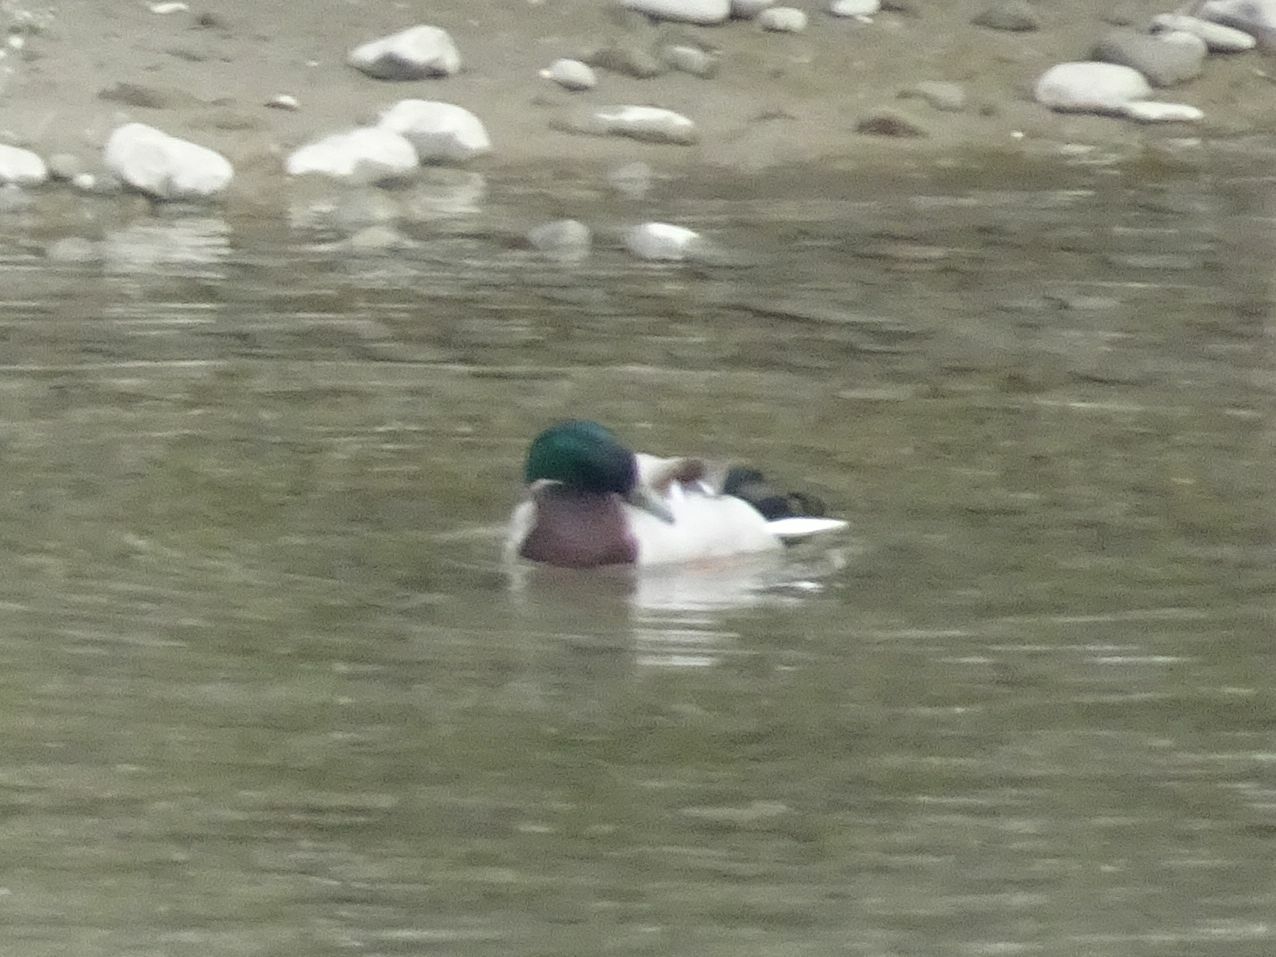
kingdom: Animalia
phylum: Chordata
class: Aves
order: Anseriformes
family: Anatidae
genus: Anas
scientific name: Anas platyrhynchos
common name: Mallard
